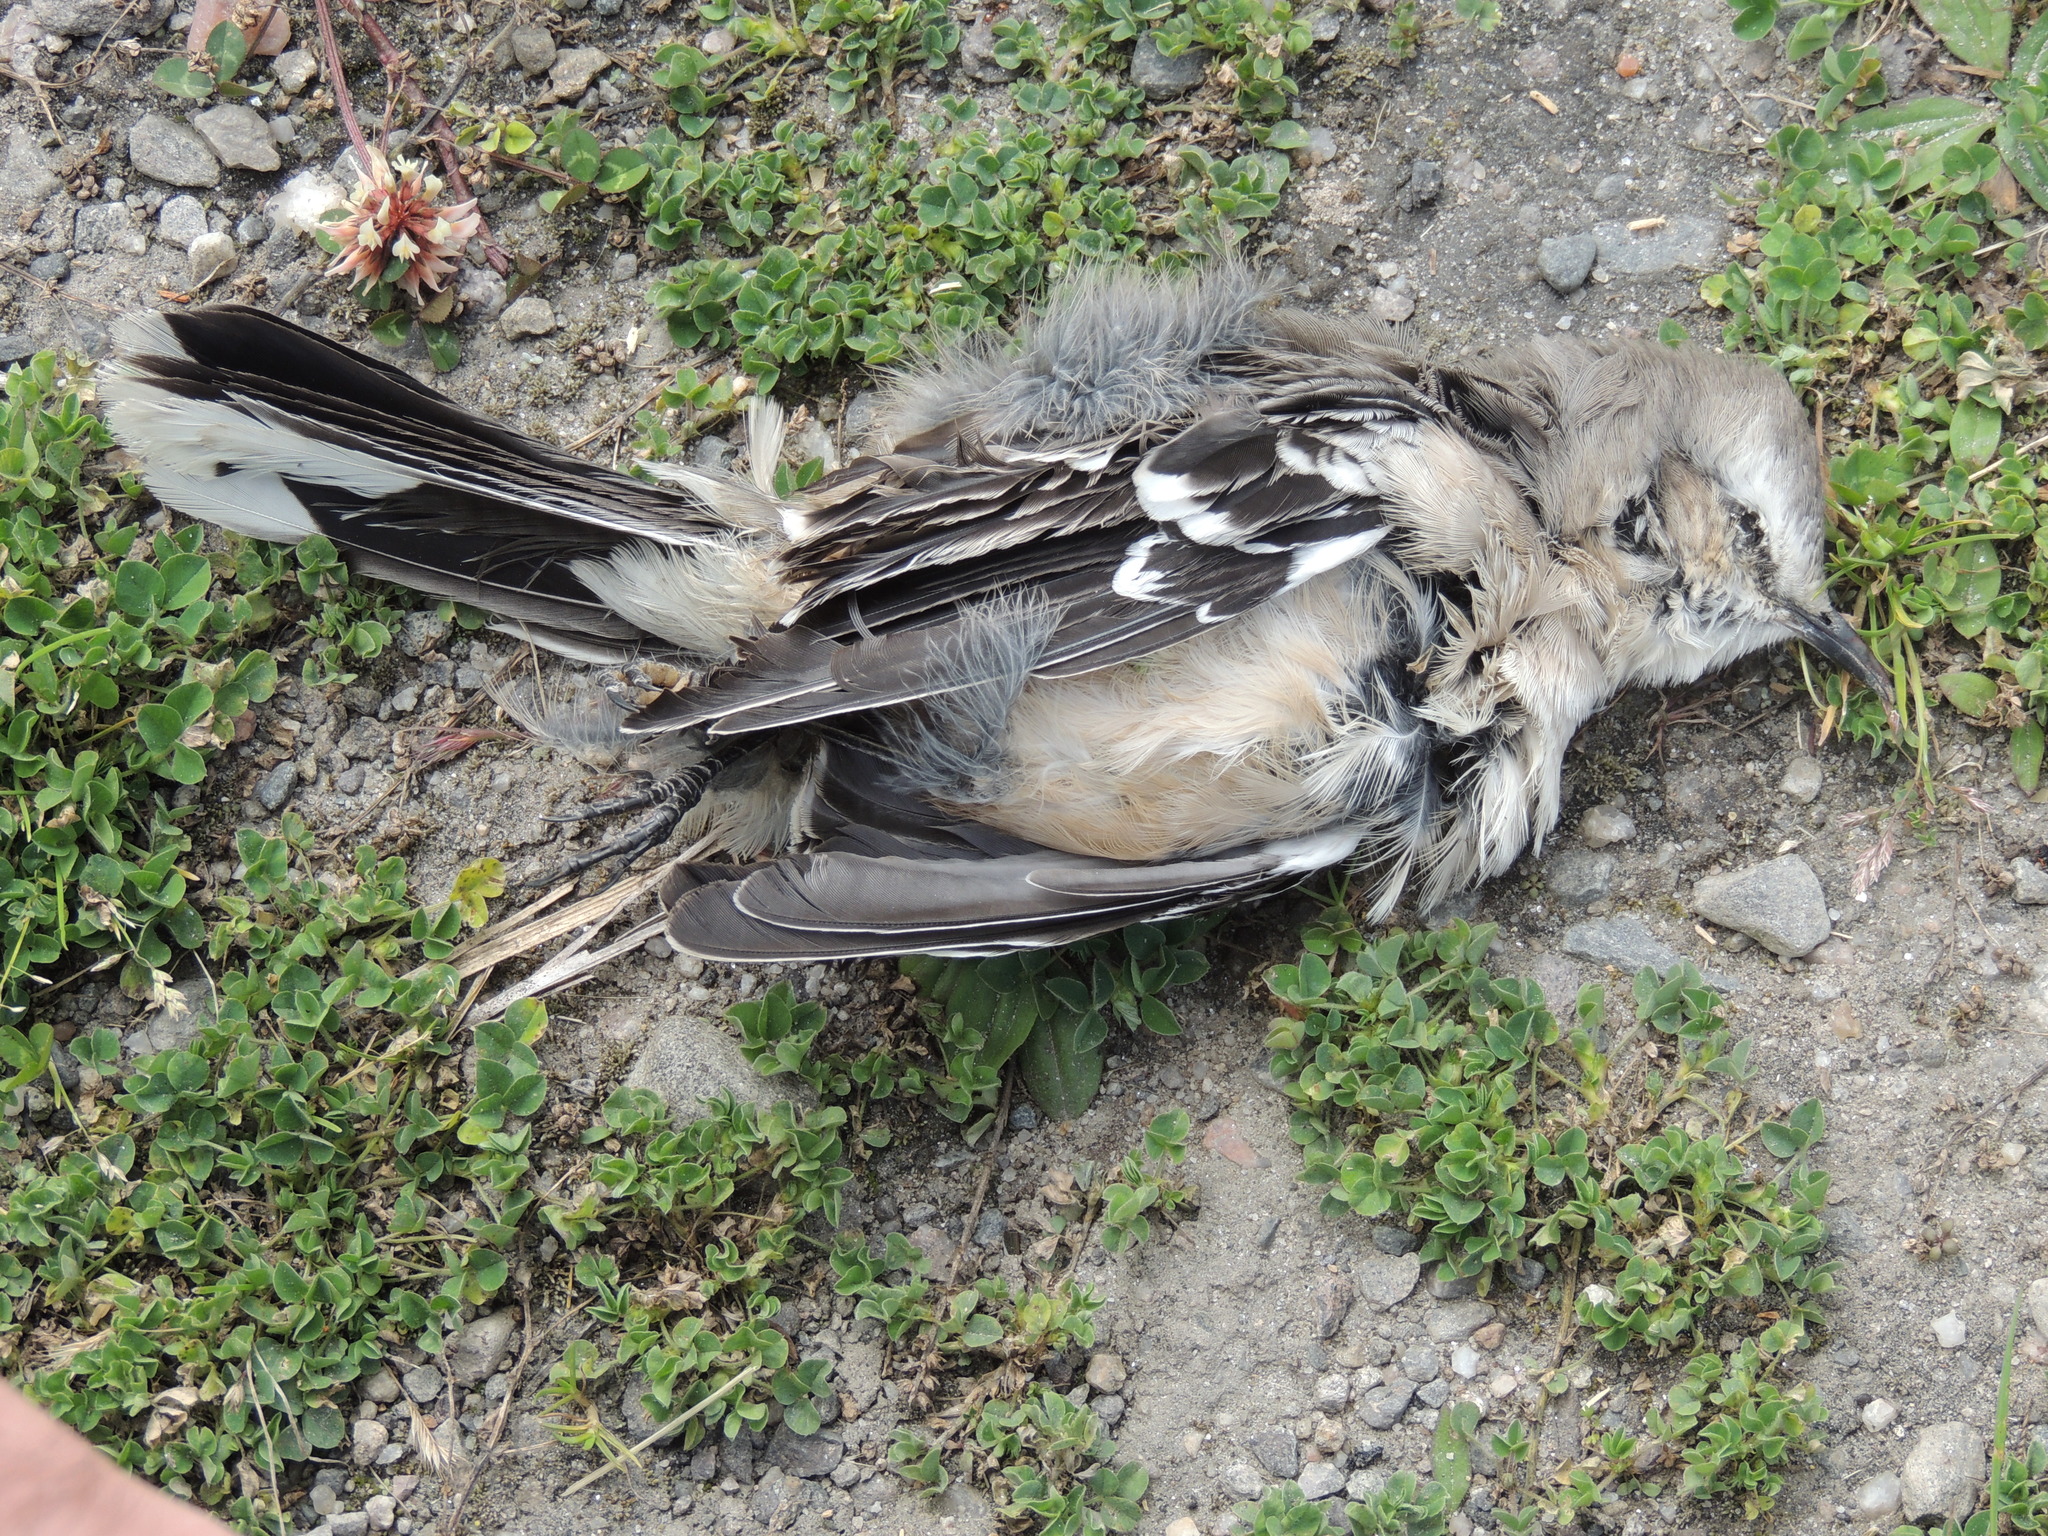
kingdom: Animalia
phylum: Chordata
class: Aves
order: Passeriformes
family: Mimidae
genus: Mimus
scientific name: Mimus patagonicus
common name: Patagonian mockingbird
